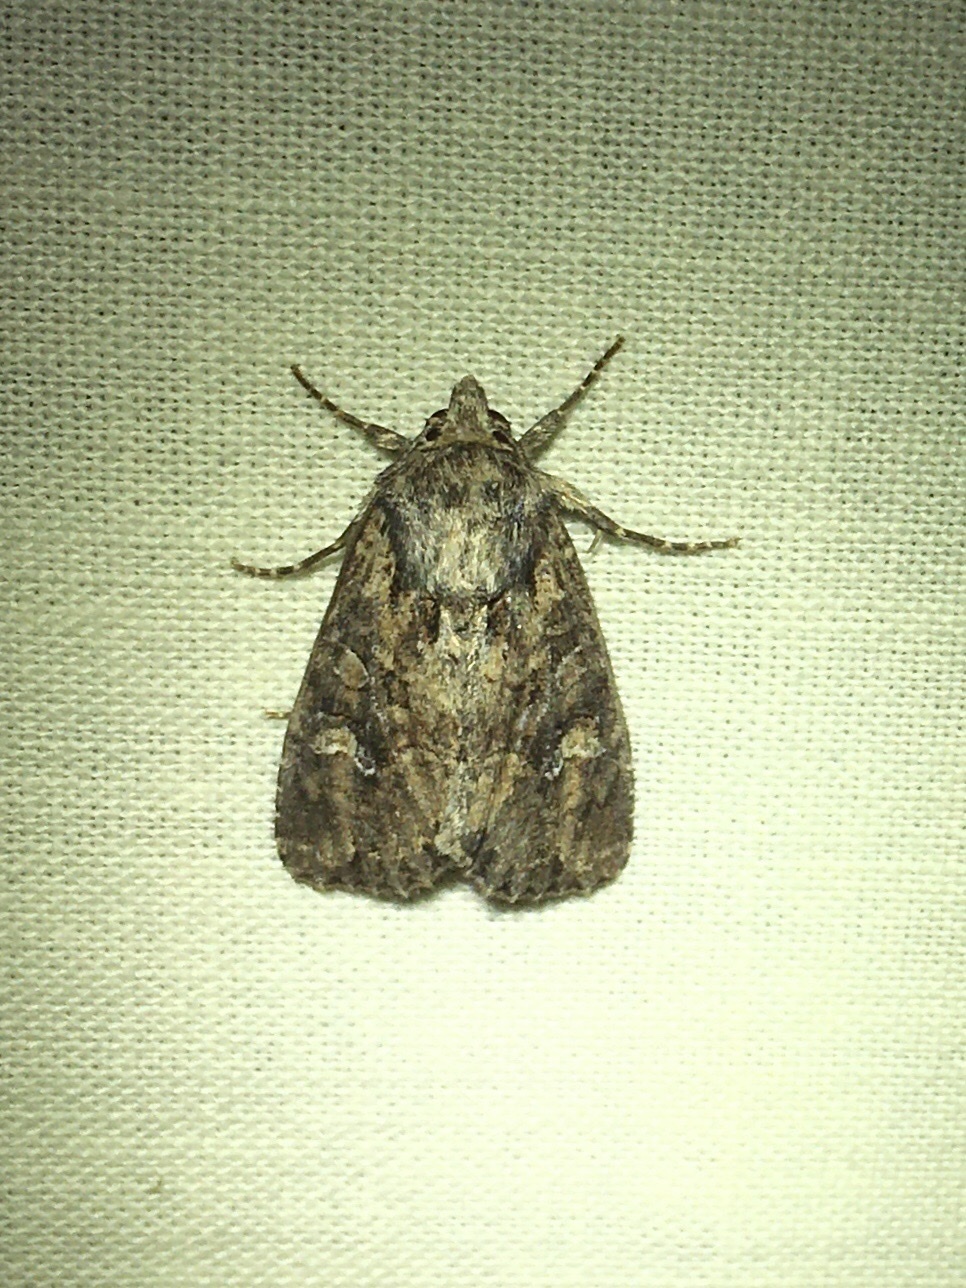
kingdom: Animalia
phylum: Arthropoda
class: Insecta
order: Lepidoptera
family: Noctuidae
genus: Apamea
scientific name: Apamea unanimis
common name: Small clouded brindle
